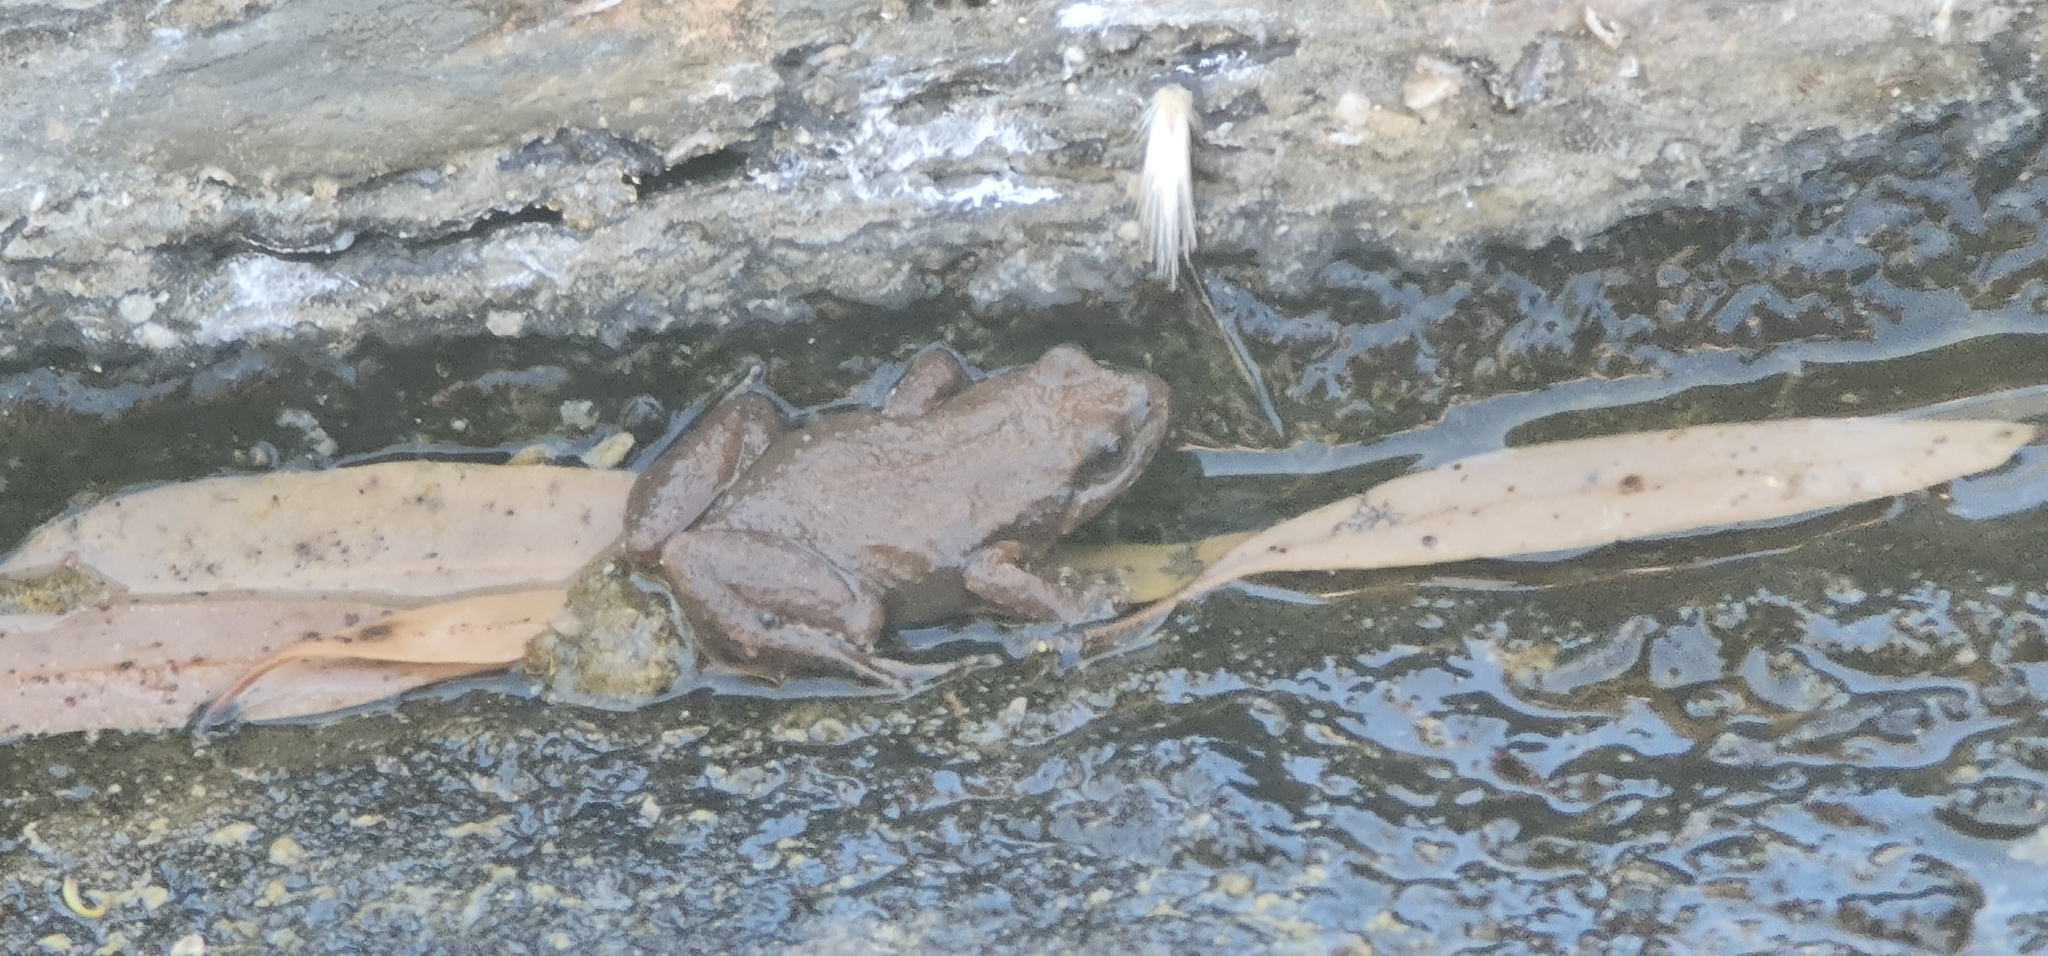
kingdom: Animalia
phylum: Chordata
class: Amphibia
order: Anura
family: Myobatrachidae
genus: Crinia
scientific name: Crinia flindersensis
